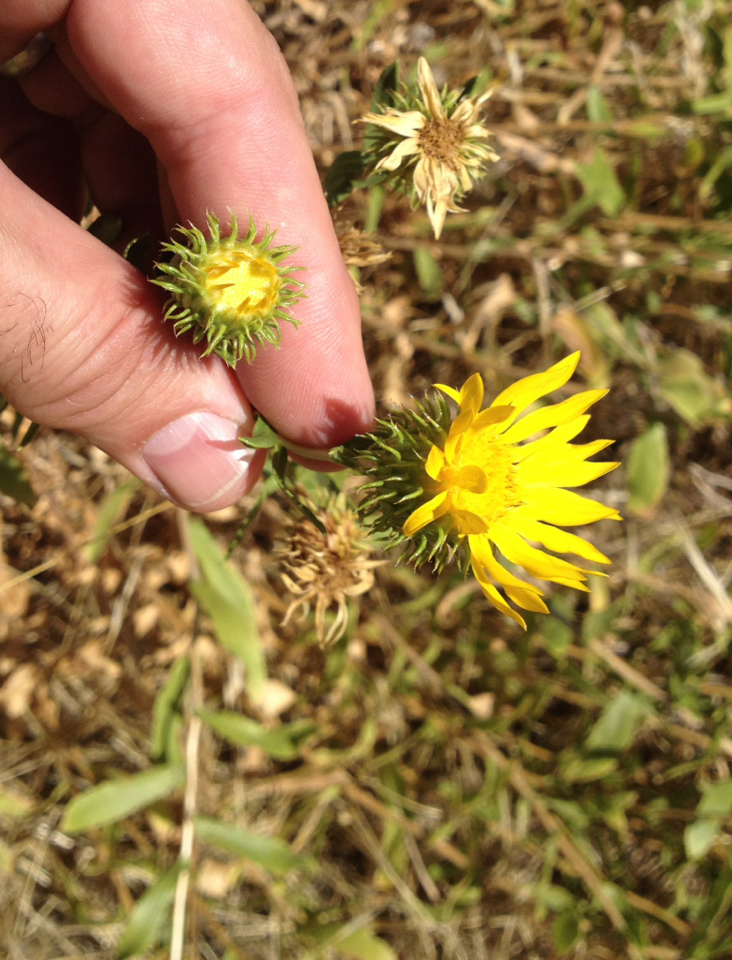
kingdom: Plantae
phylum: Tracheophyta
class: Magnoliopsida
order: Asterales
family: Asteraceae
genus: Grindelia
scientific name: Grindelia hirsutula
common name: Hairy gumweed
